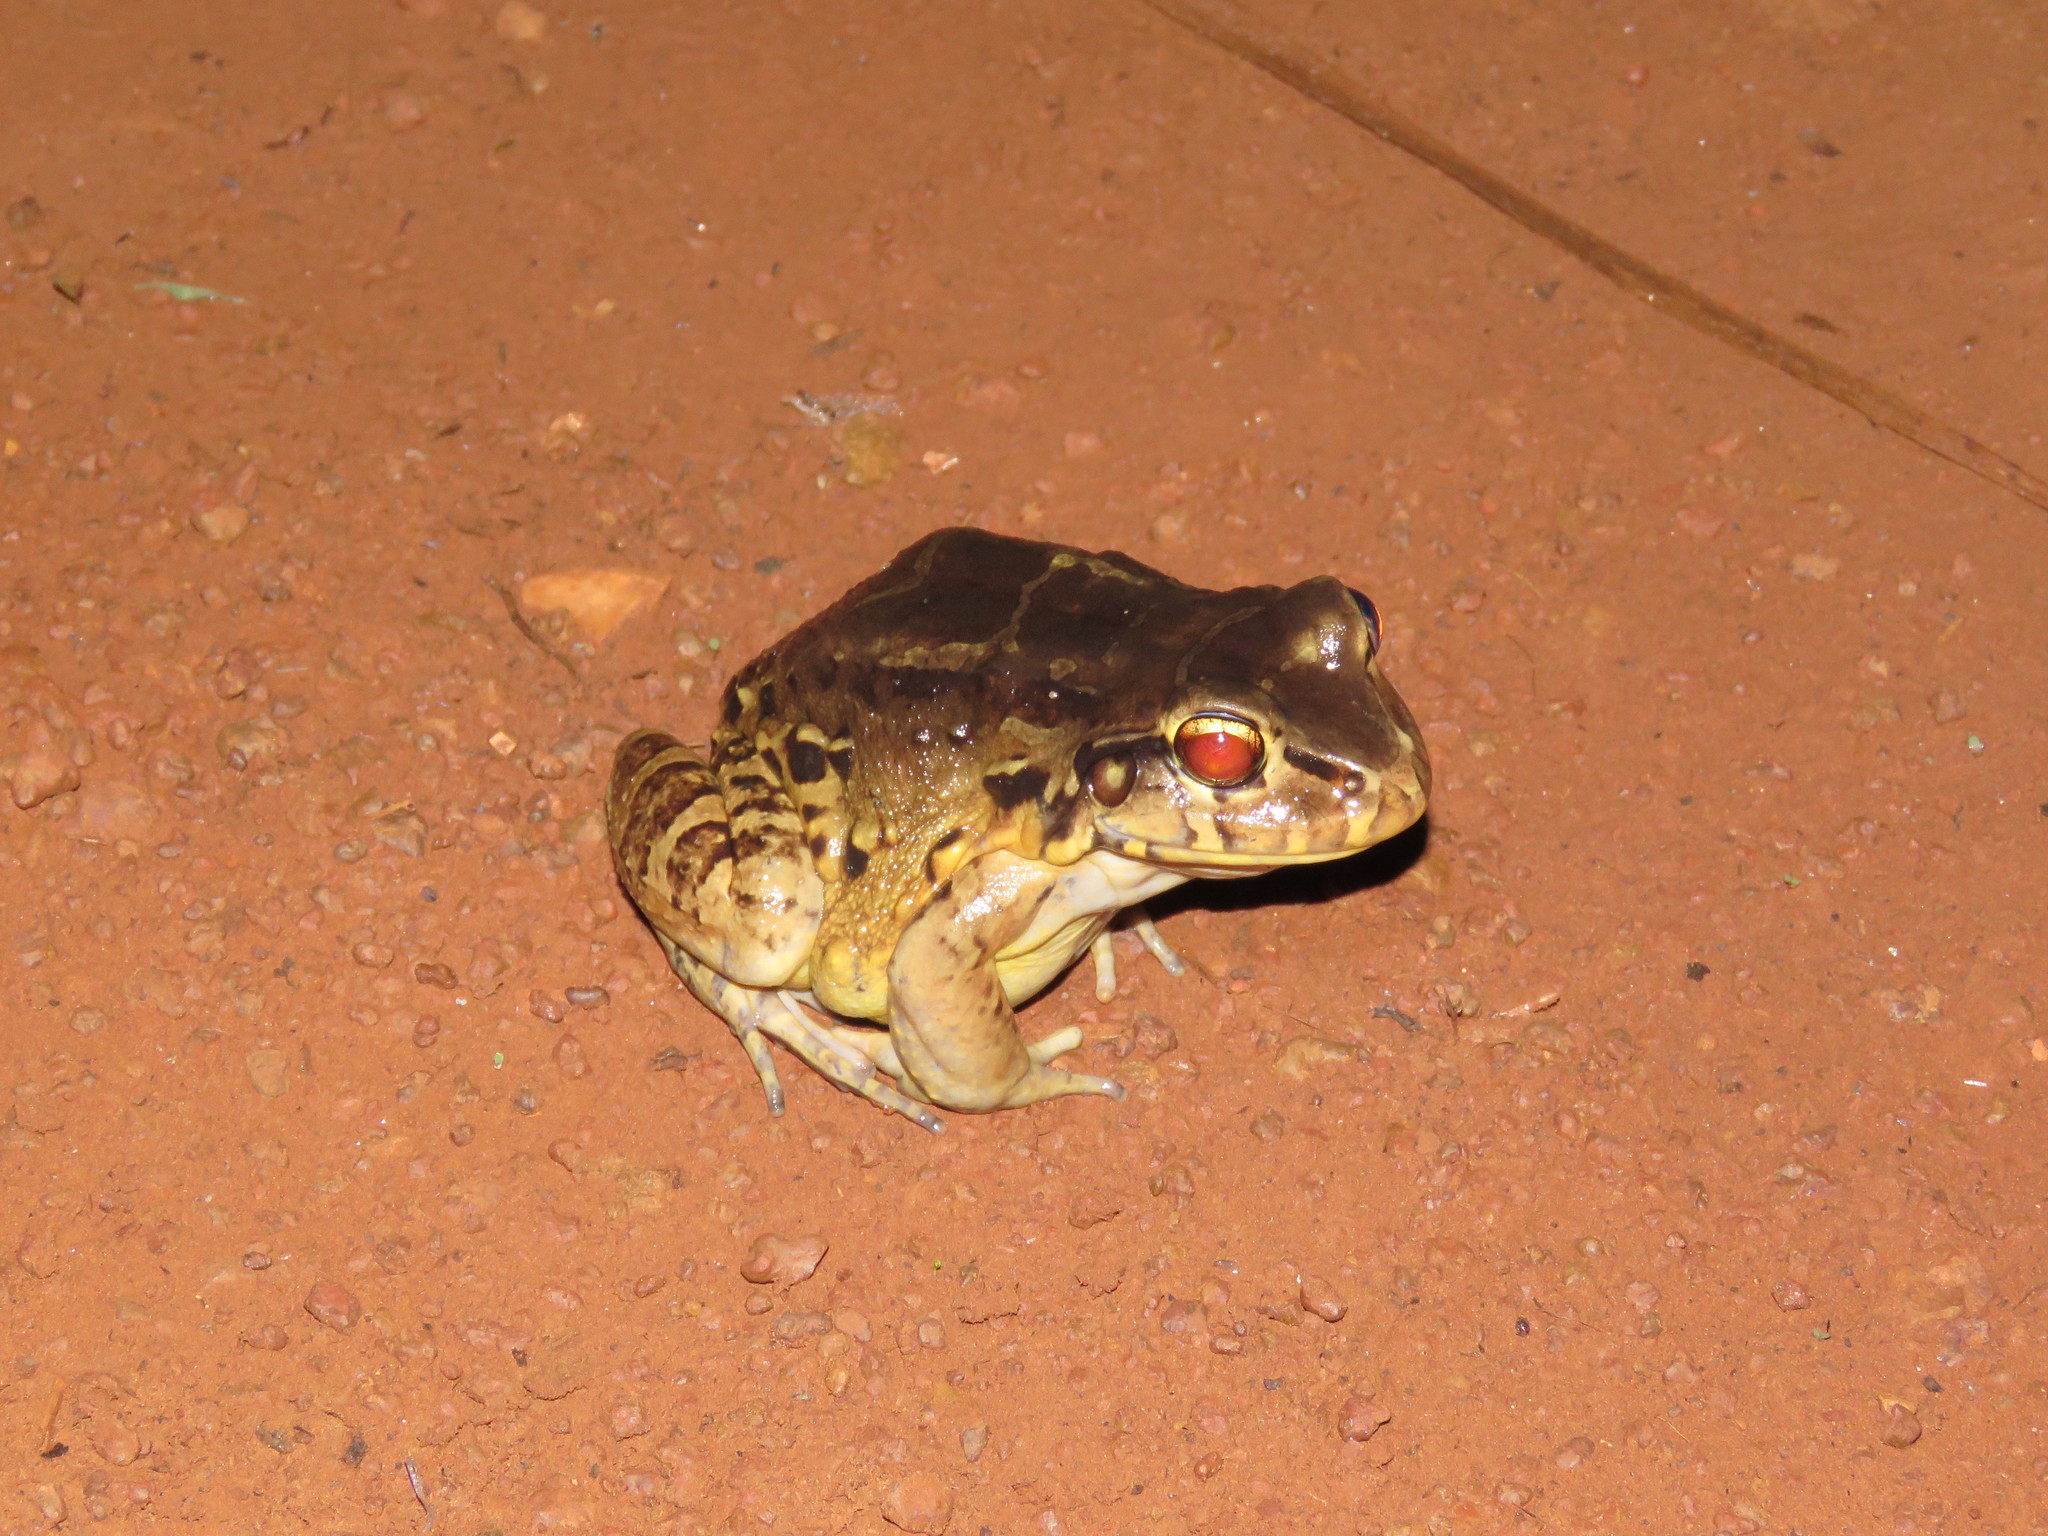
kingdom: Animalia
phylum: Chordata
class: Amphibia
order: Anura
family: Leptodactylidae
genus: Leptodactylus
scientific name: Leptodactylus pentadactylus
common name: Smoky jungle frog
